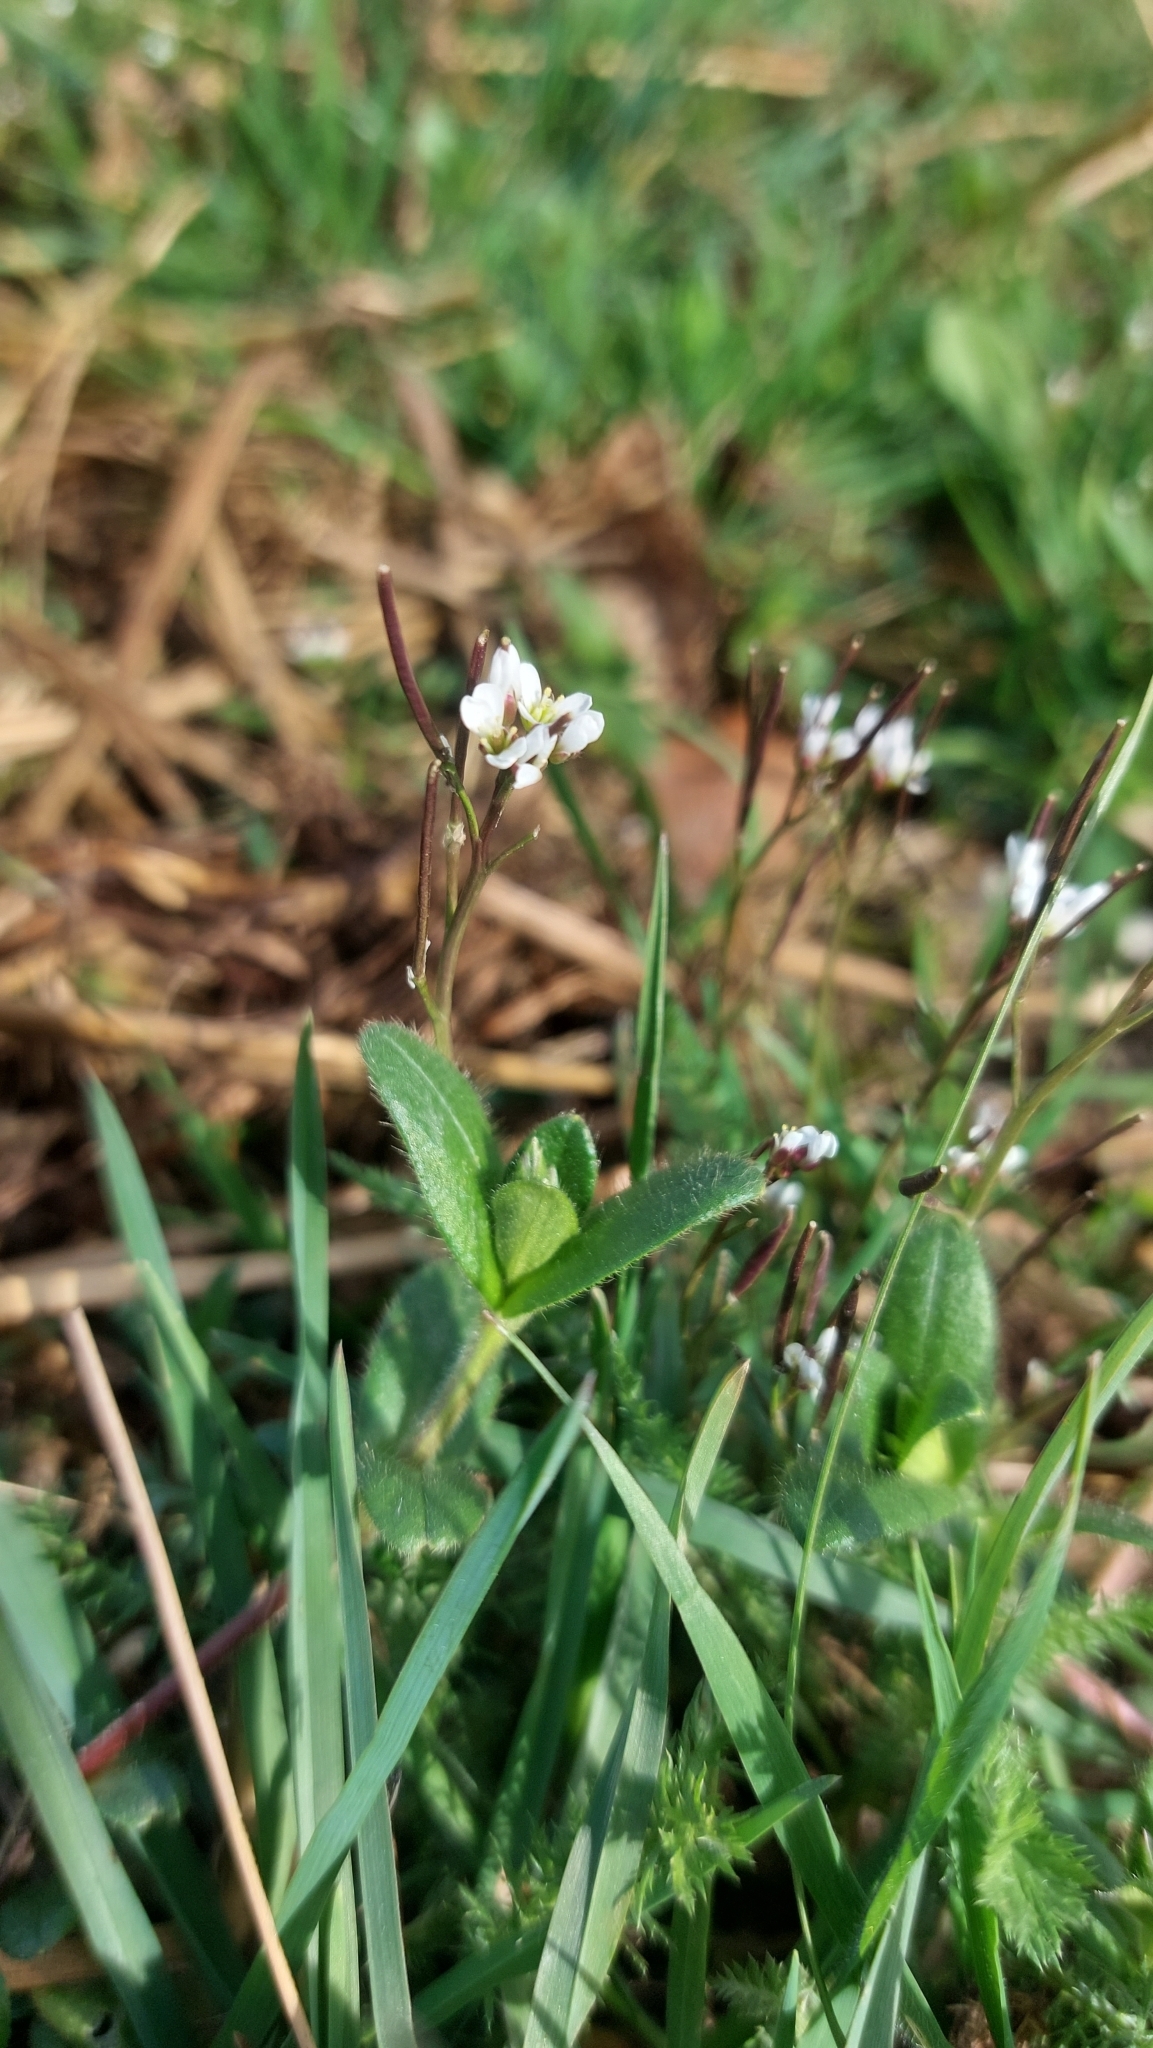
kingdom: Plantae
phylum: Tracheophyta
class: Magnoliopsida
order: Brassicales
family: Brassicaceae
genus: Cardamine
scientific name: Cardamine hirsuta
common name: Hairy bittercress
